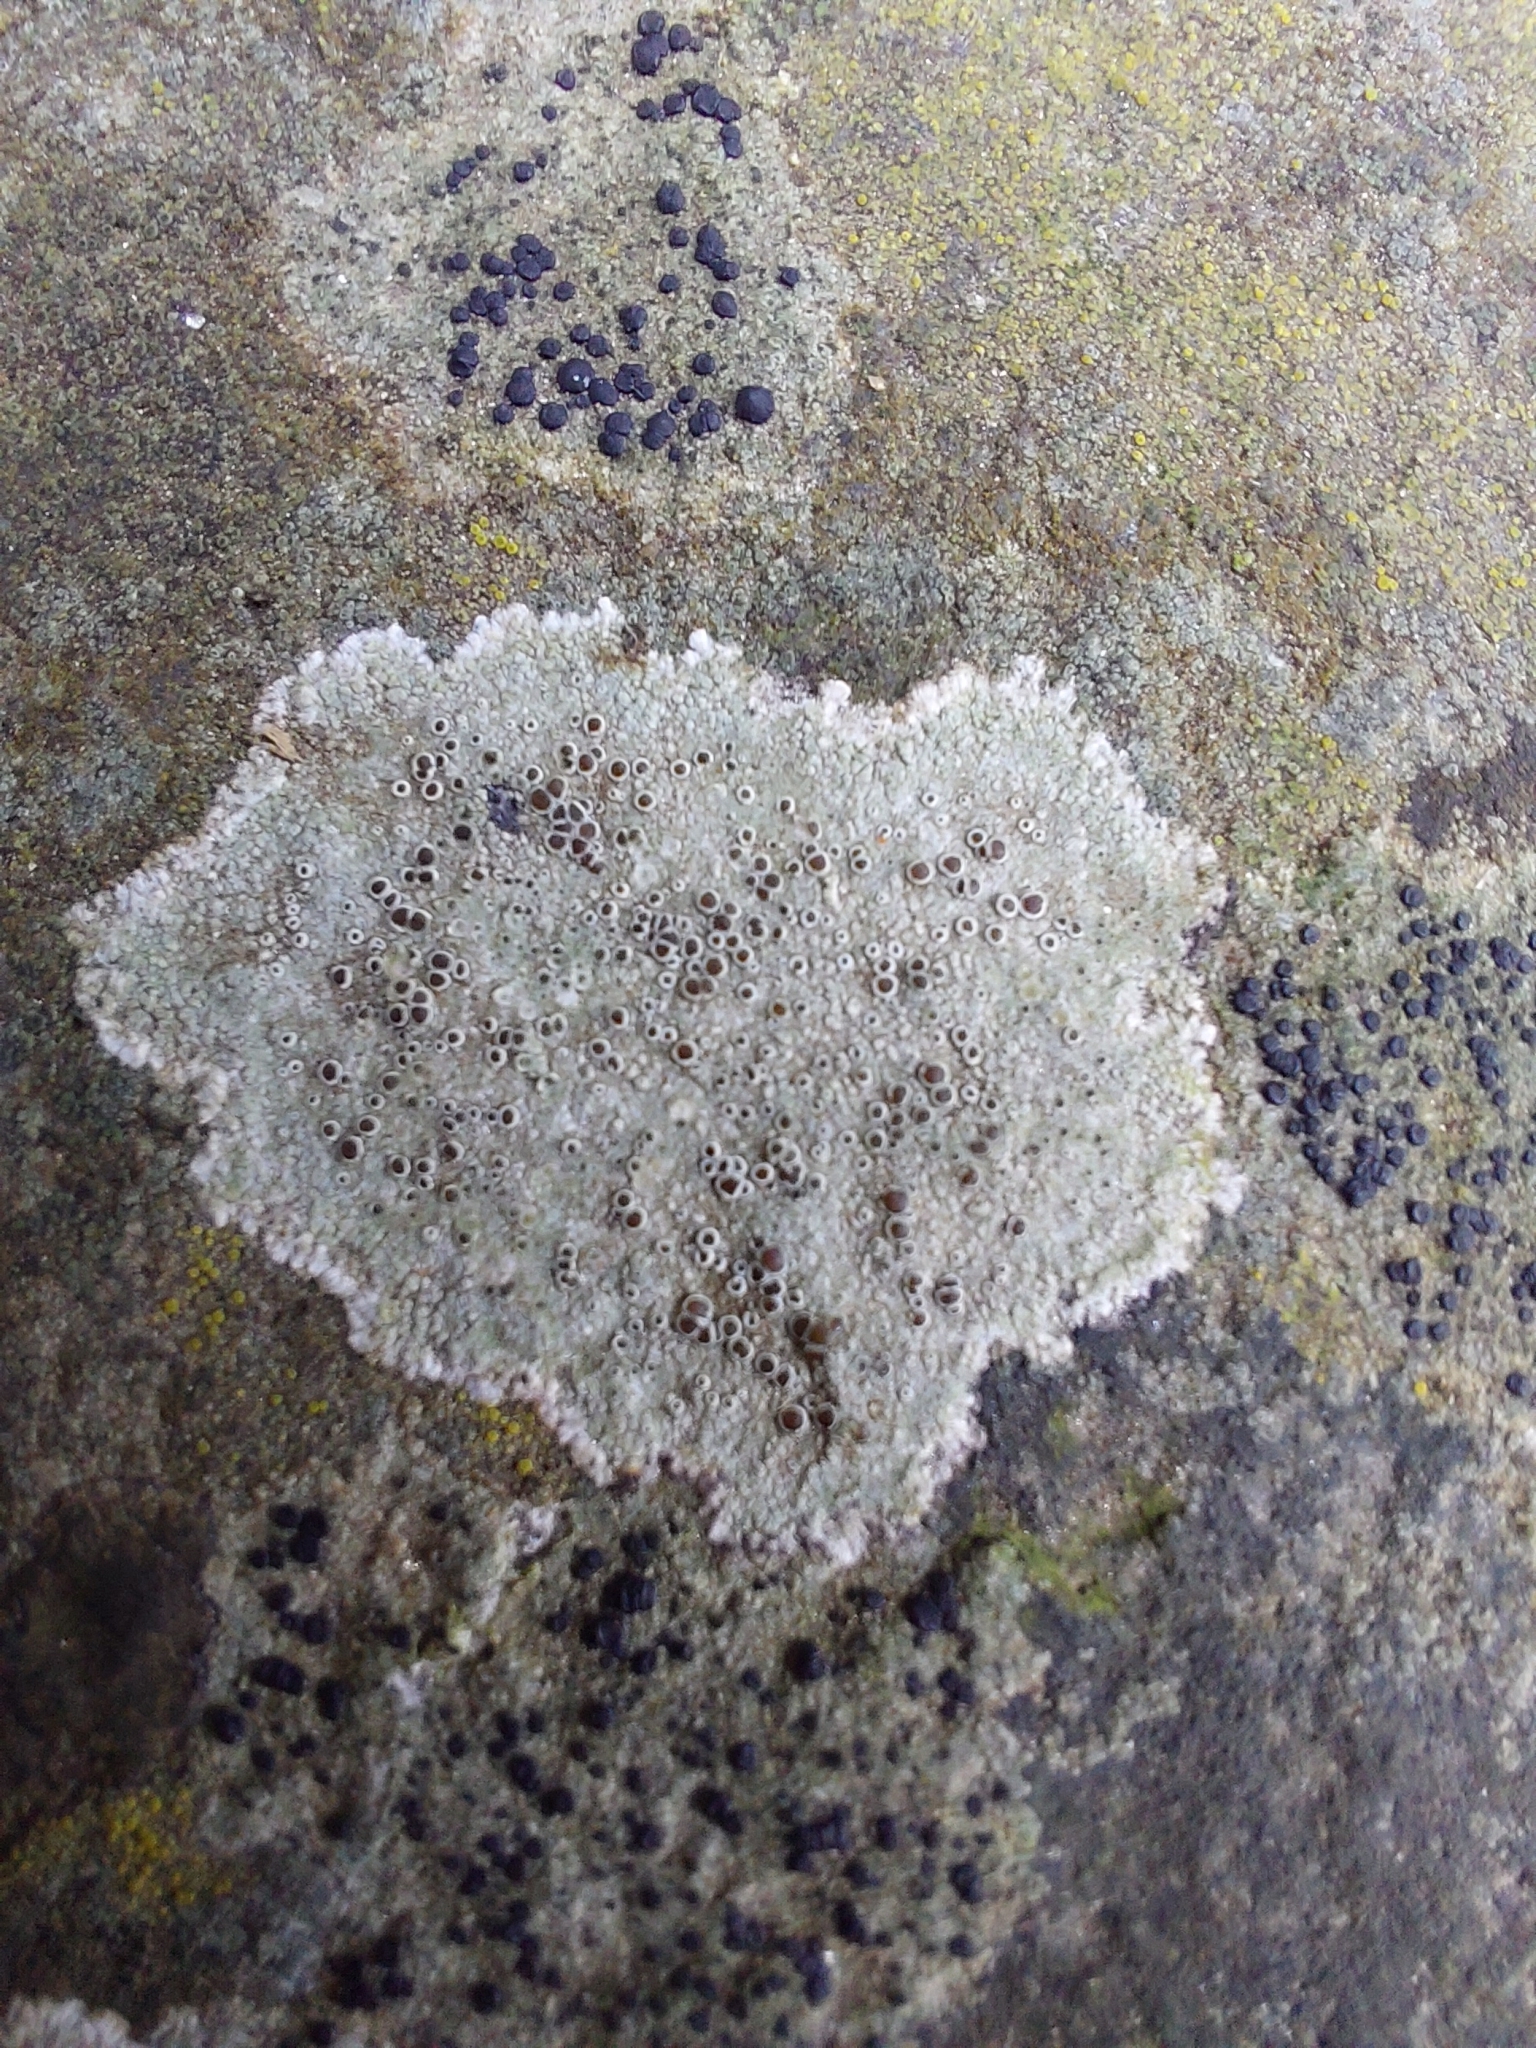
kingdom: Fungi
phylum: Ascomycota
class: Lecanoromycetes
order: Lecanorales
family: Lecanoraceae
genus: Lecanora
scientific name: Lecanora campestris
